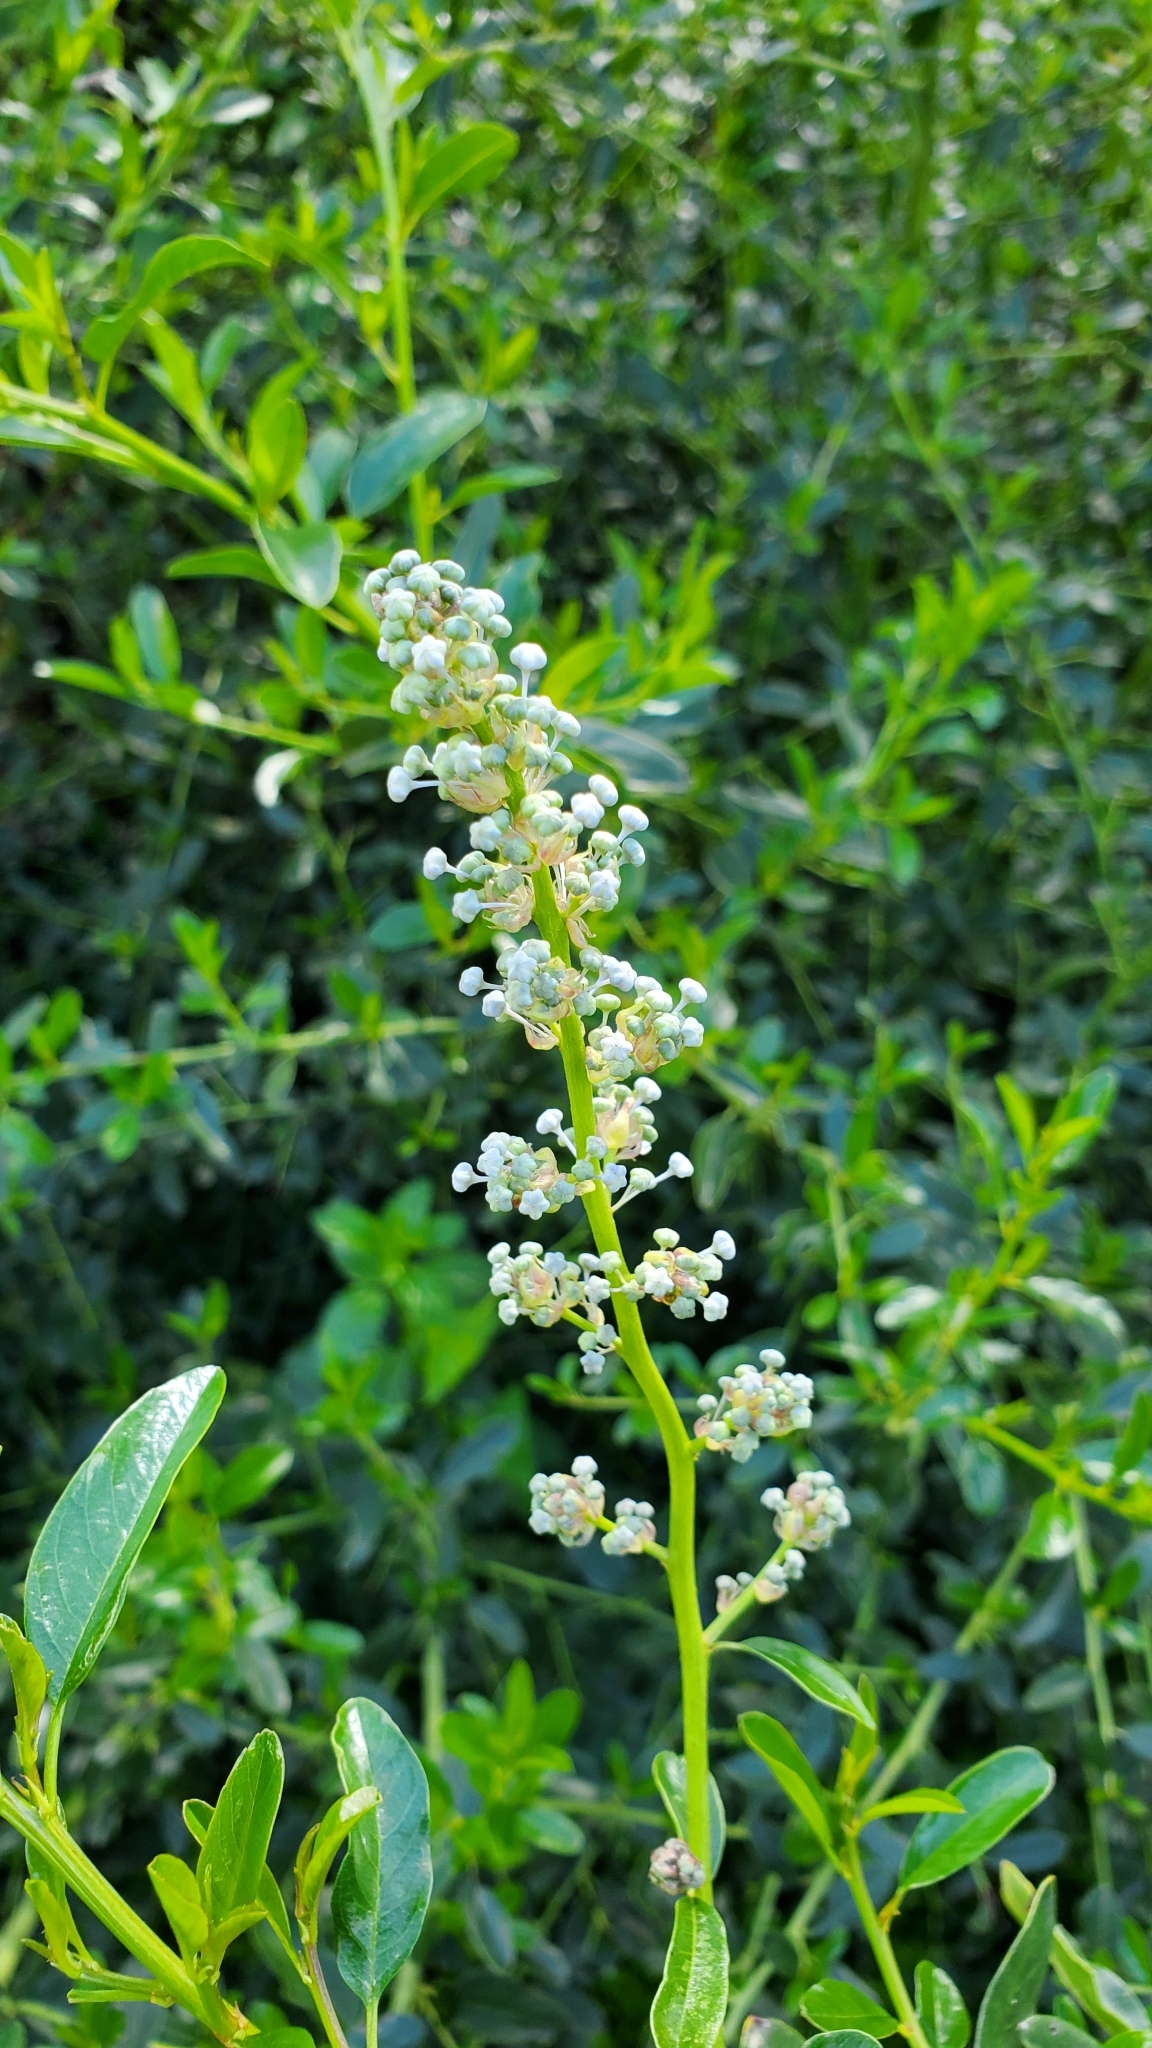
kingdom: Plantae
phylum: Tracheophyta
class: Magnoliopsida
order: Rosales
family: Rhamnaceae
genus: Ceanothus
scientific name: Ceanothus spinosus
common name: Greenbark whitethorn
